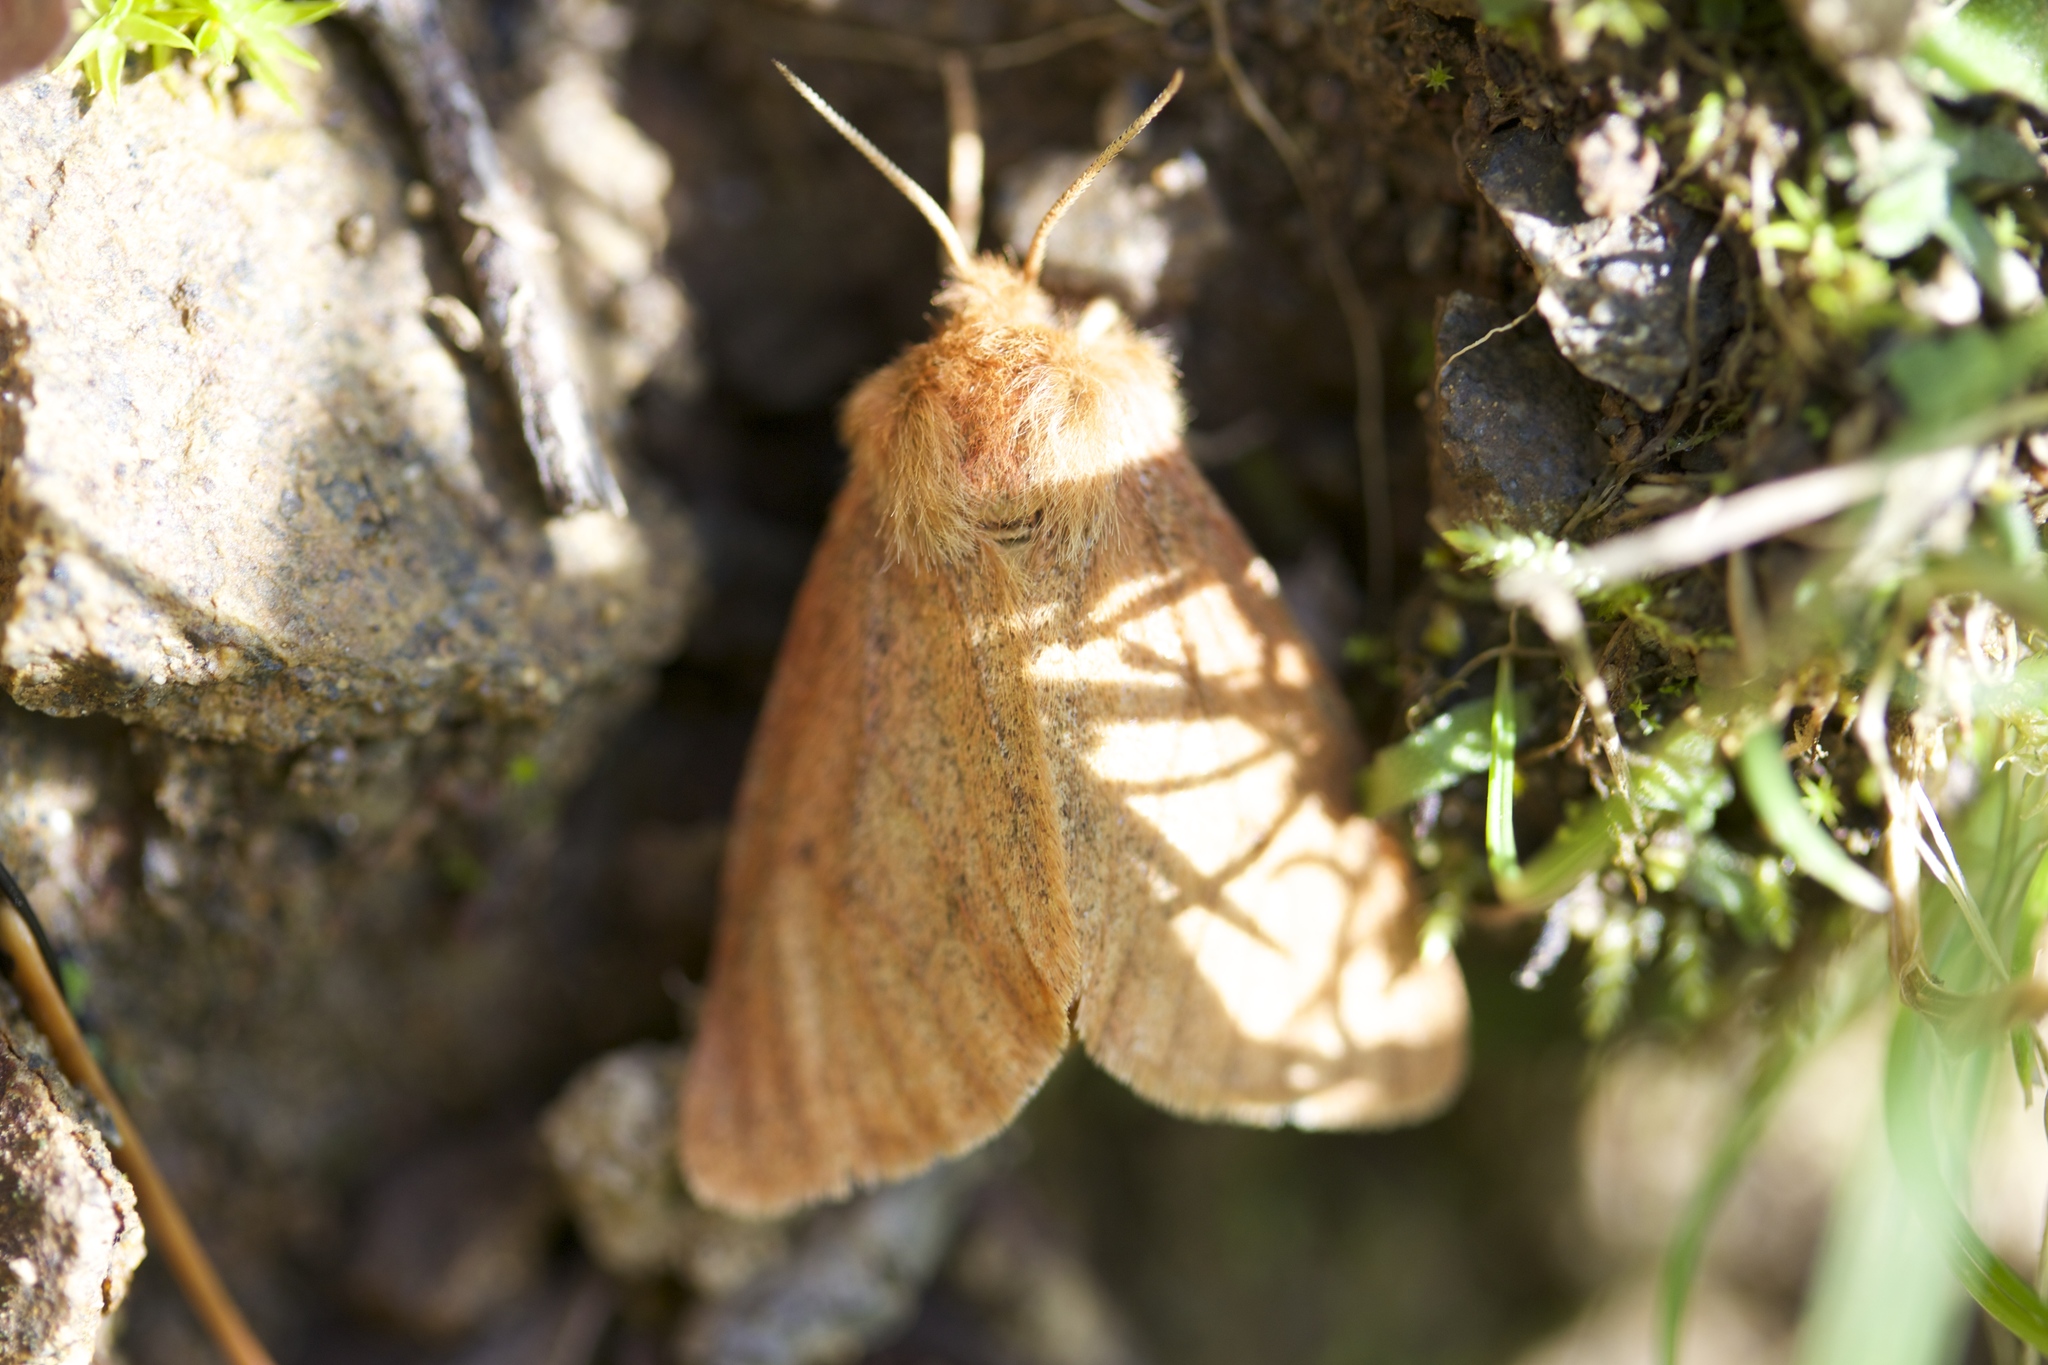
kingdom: Animalia
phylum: Arthropoda
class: Insecta
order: Lepidoptera
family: Erebidae
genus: Spilosoma
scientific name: Spilosoma vagans
